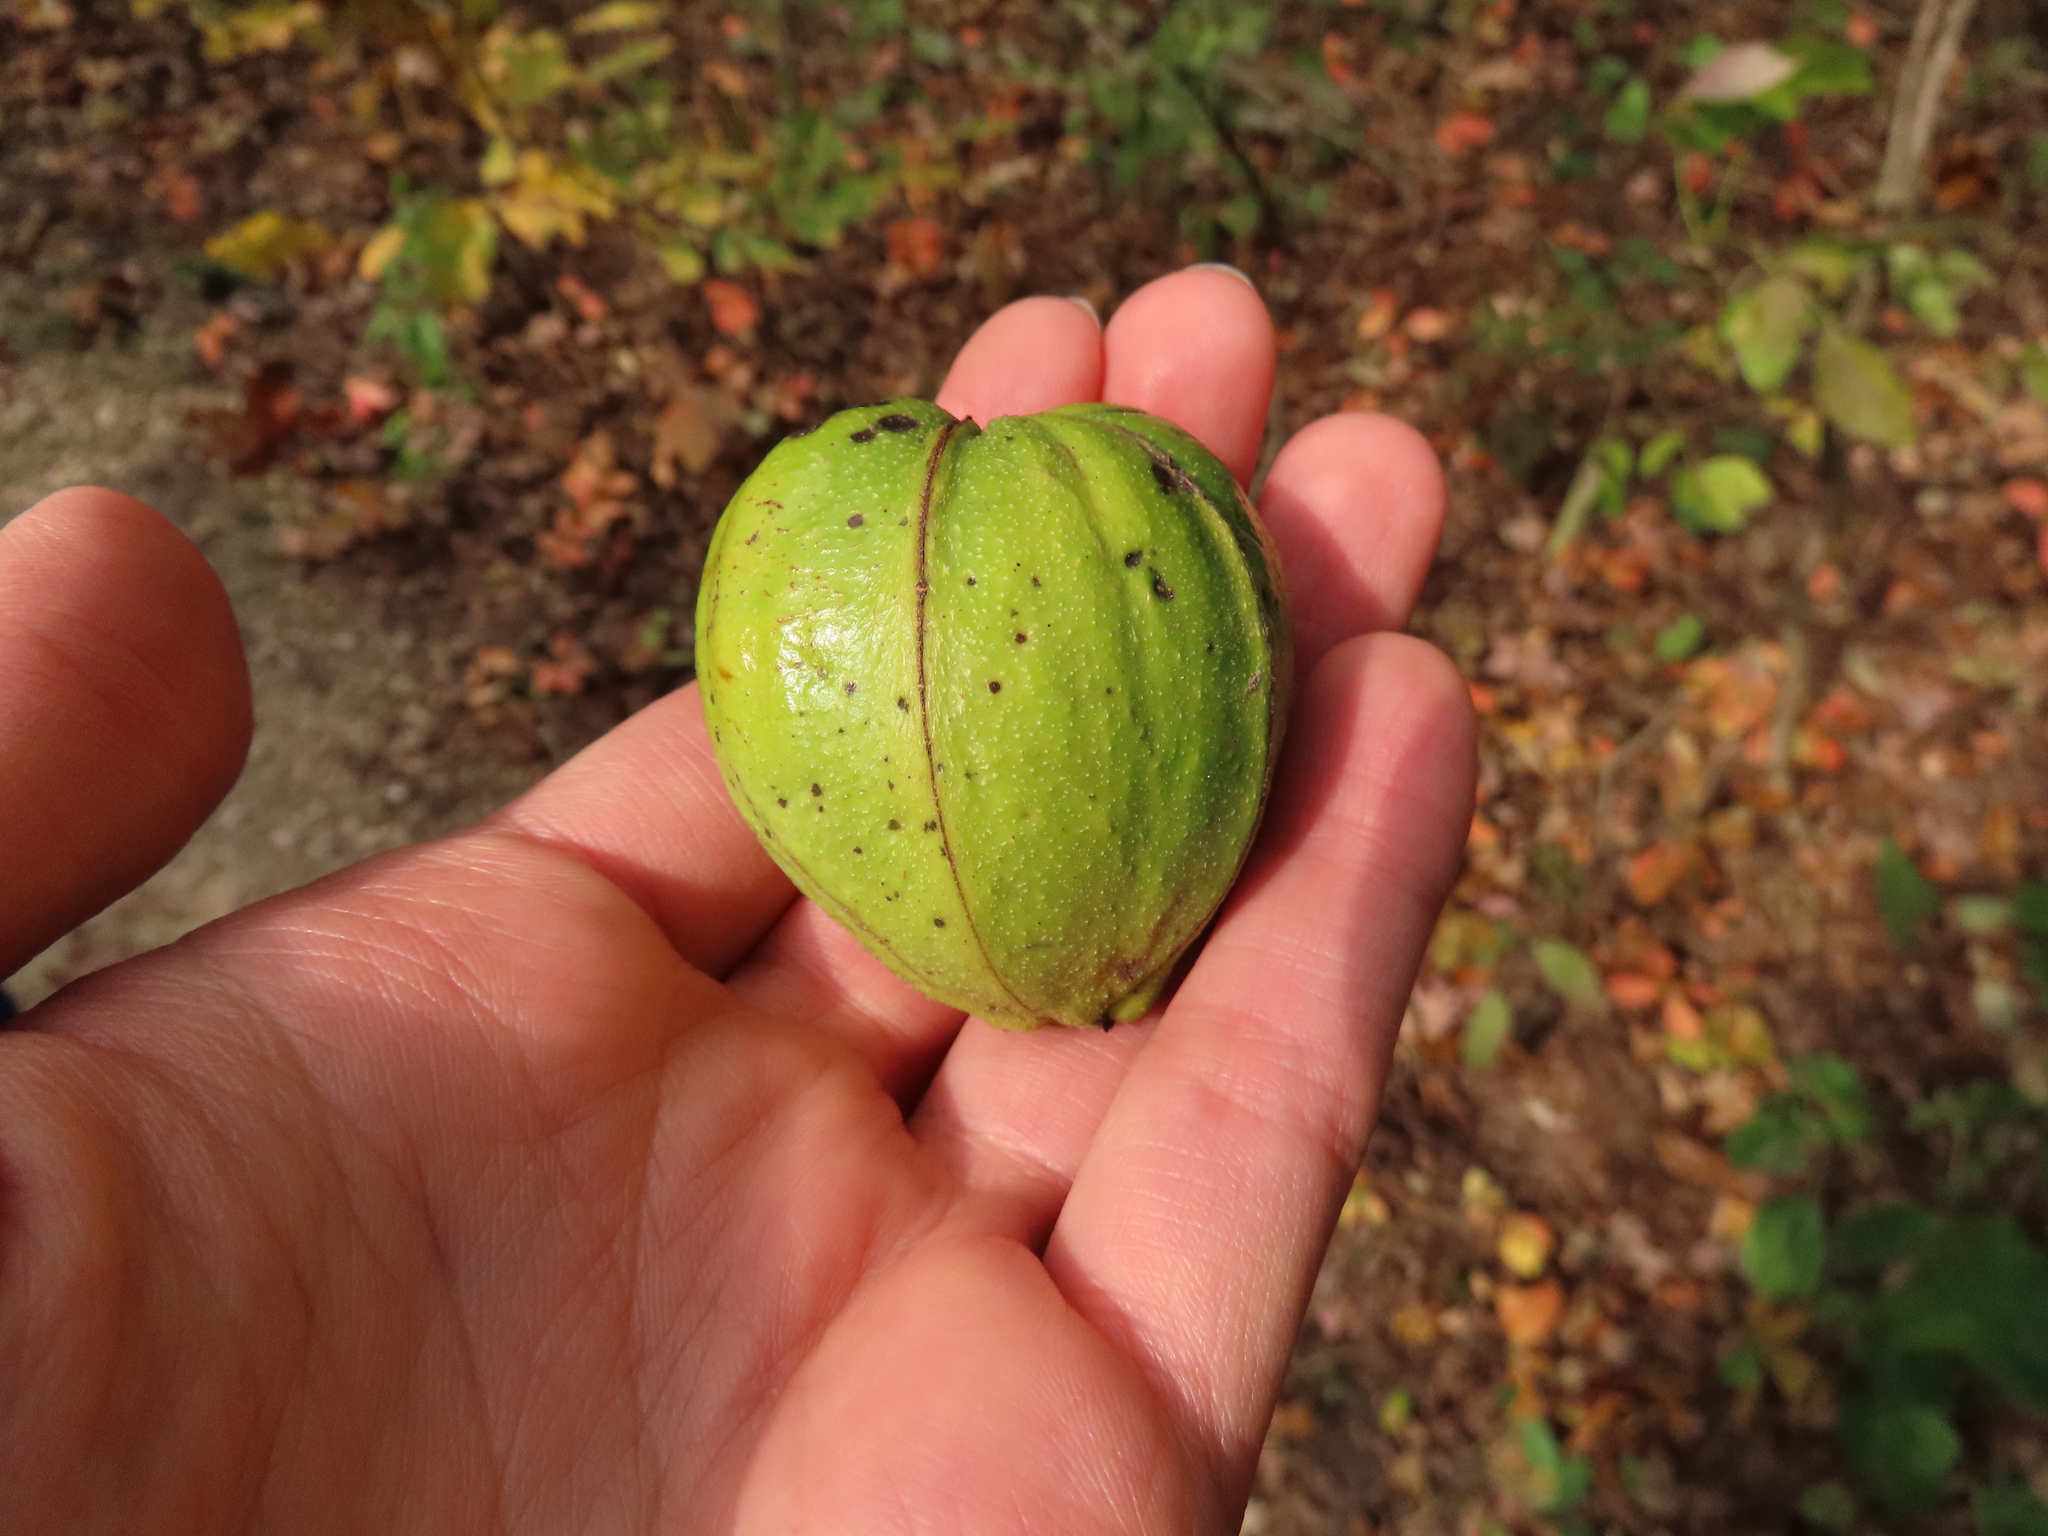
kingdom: Plantae
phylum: Tracheophyta
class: Magnoliopsida
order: Fagales
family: Juglandaceae
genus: Carya
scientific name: Carya ovata
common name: Shagbark hickory
